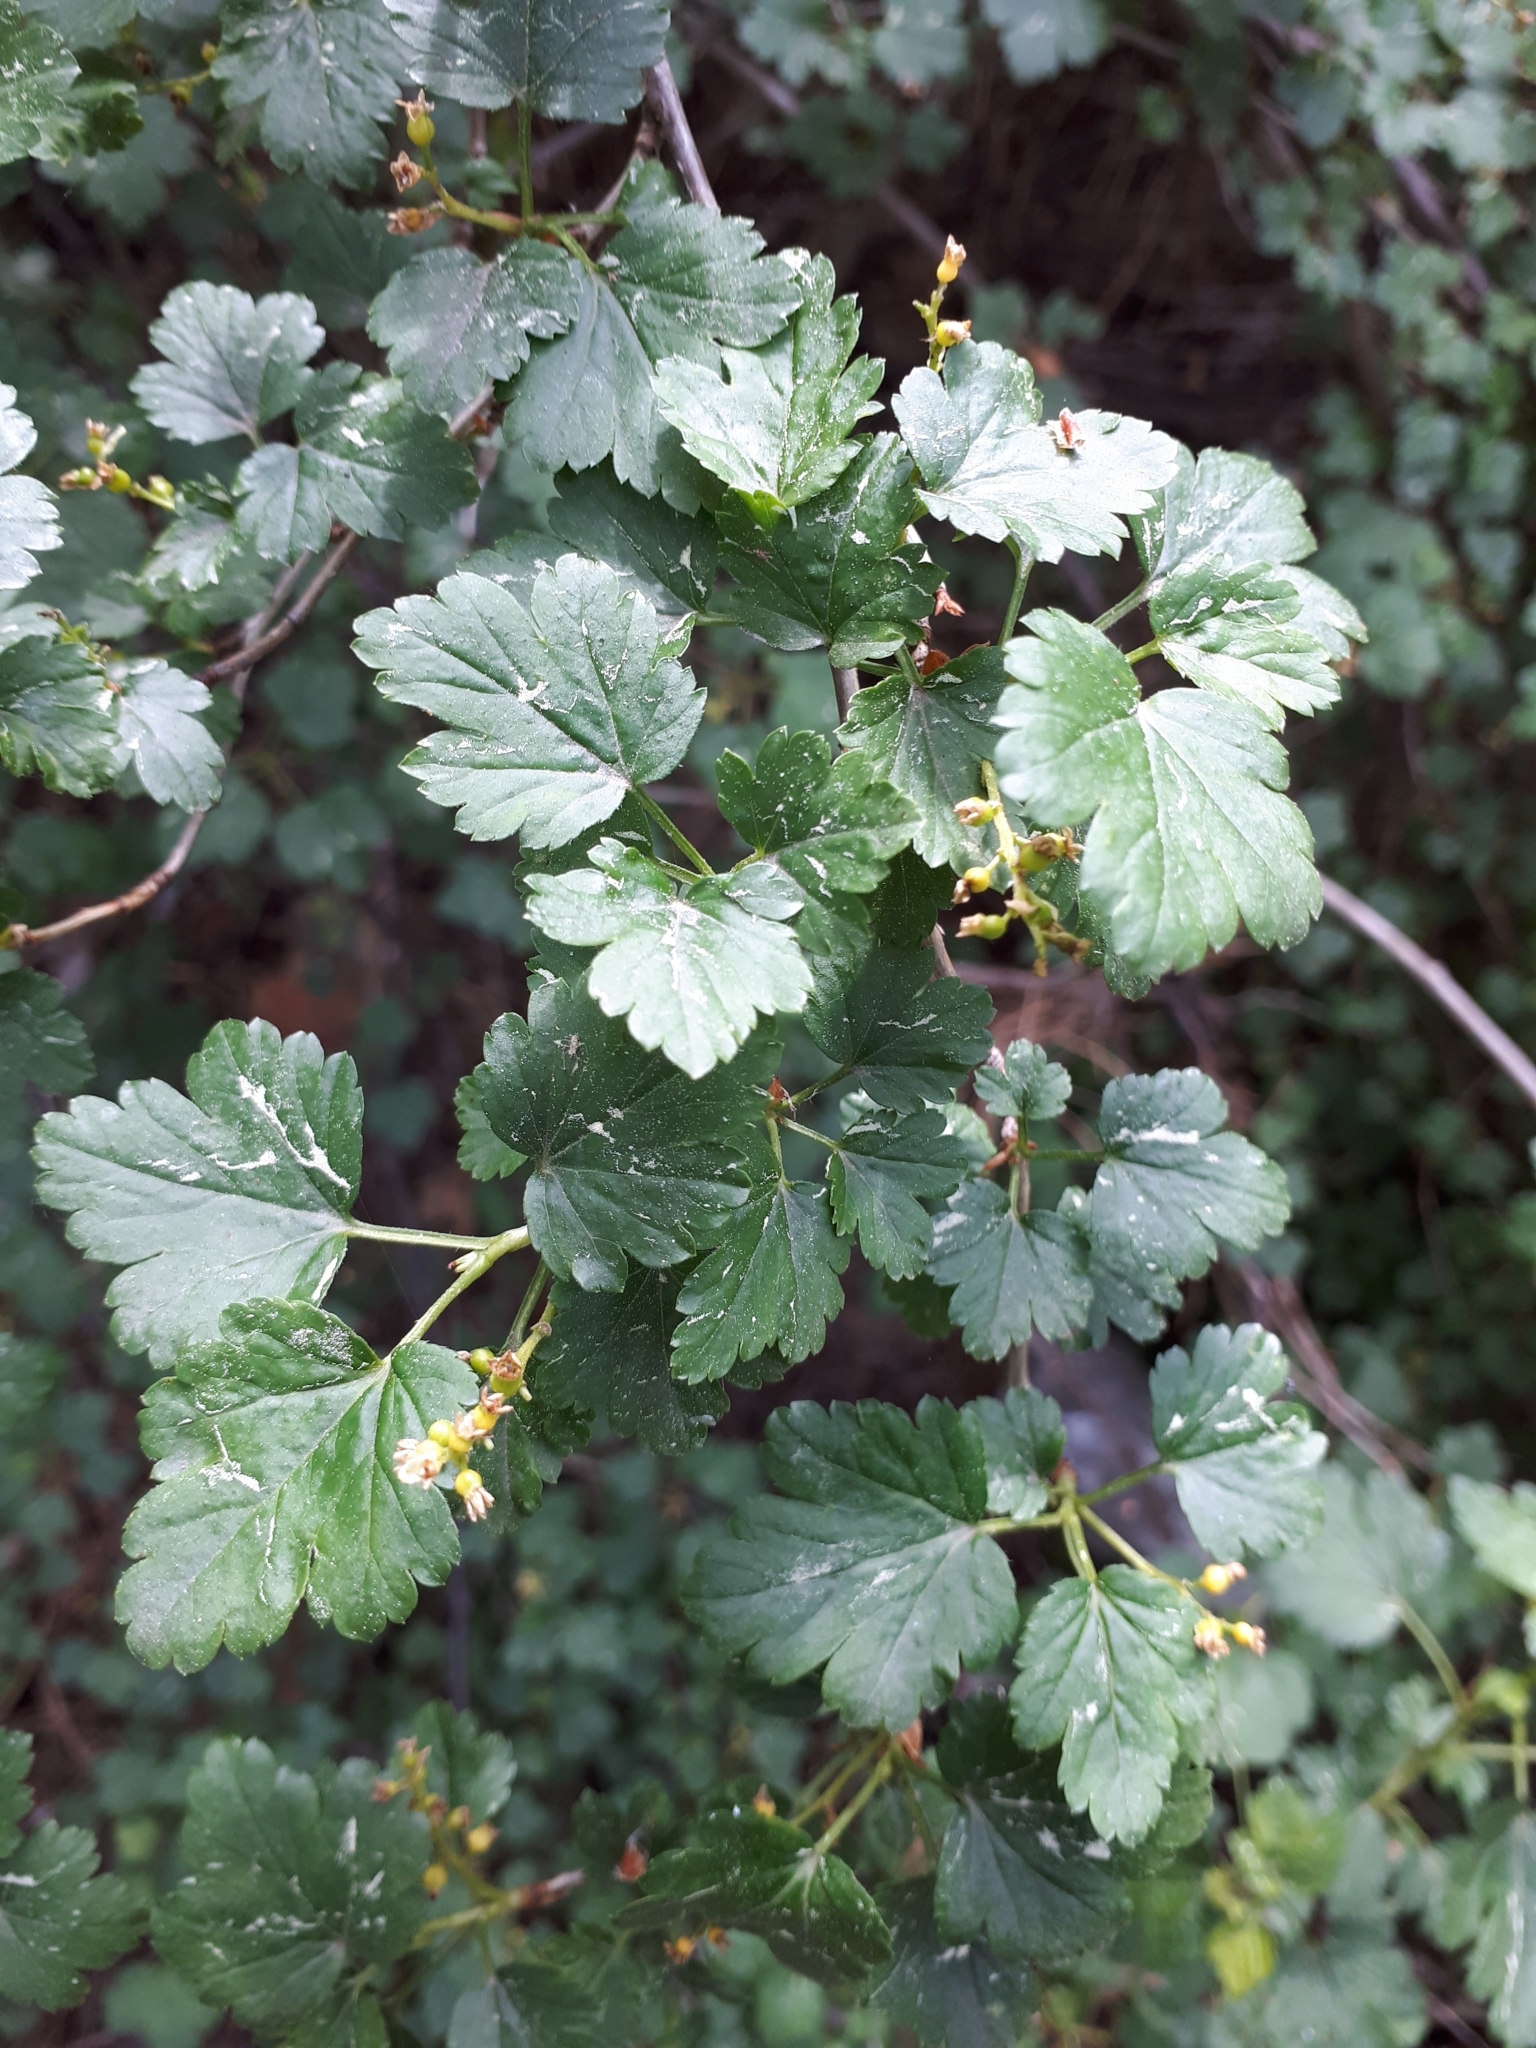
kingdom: Plantae
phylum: Tracheophyta
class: Magnoliopsida
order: Saxifragales
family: Grossulariaceae
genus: Ribes
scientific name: Ribes uva-crispa
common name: Gooseberry
